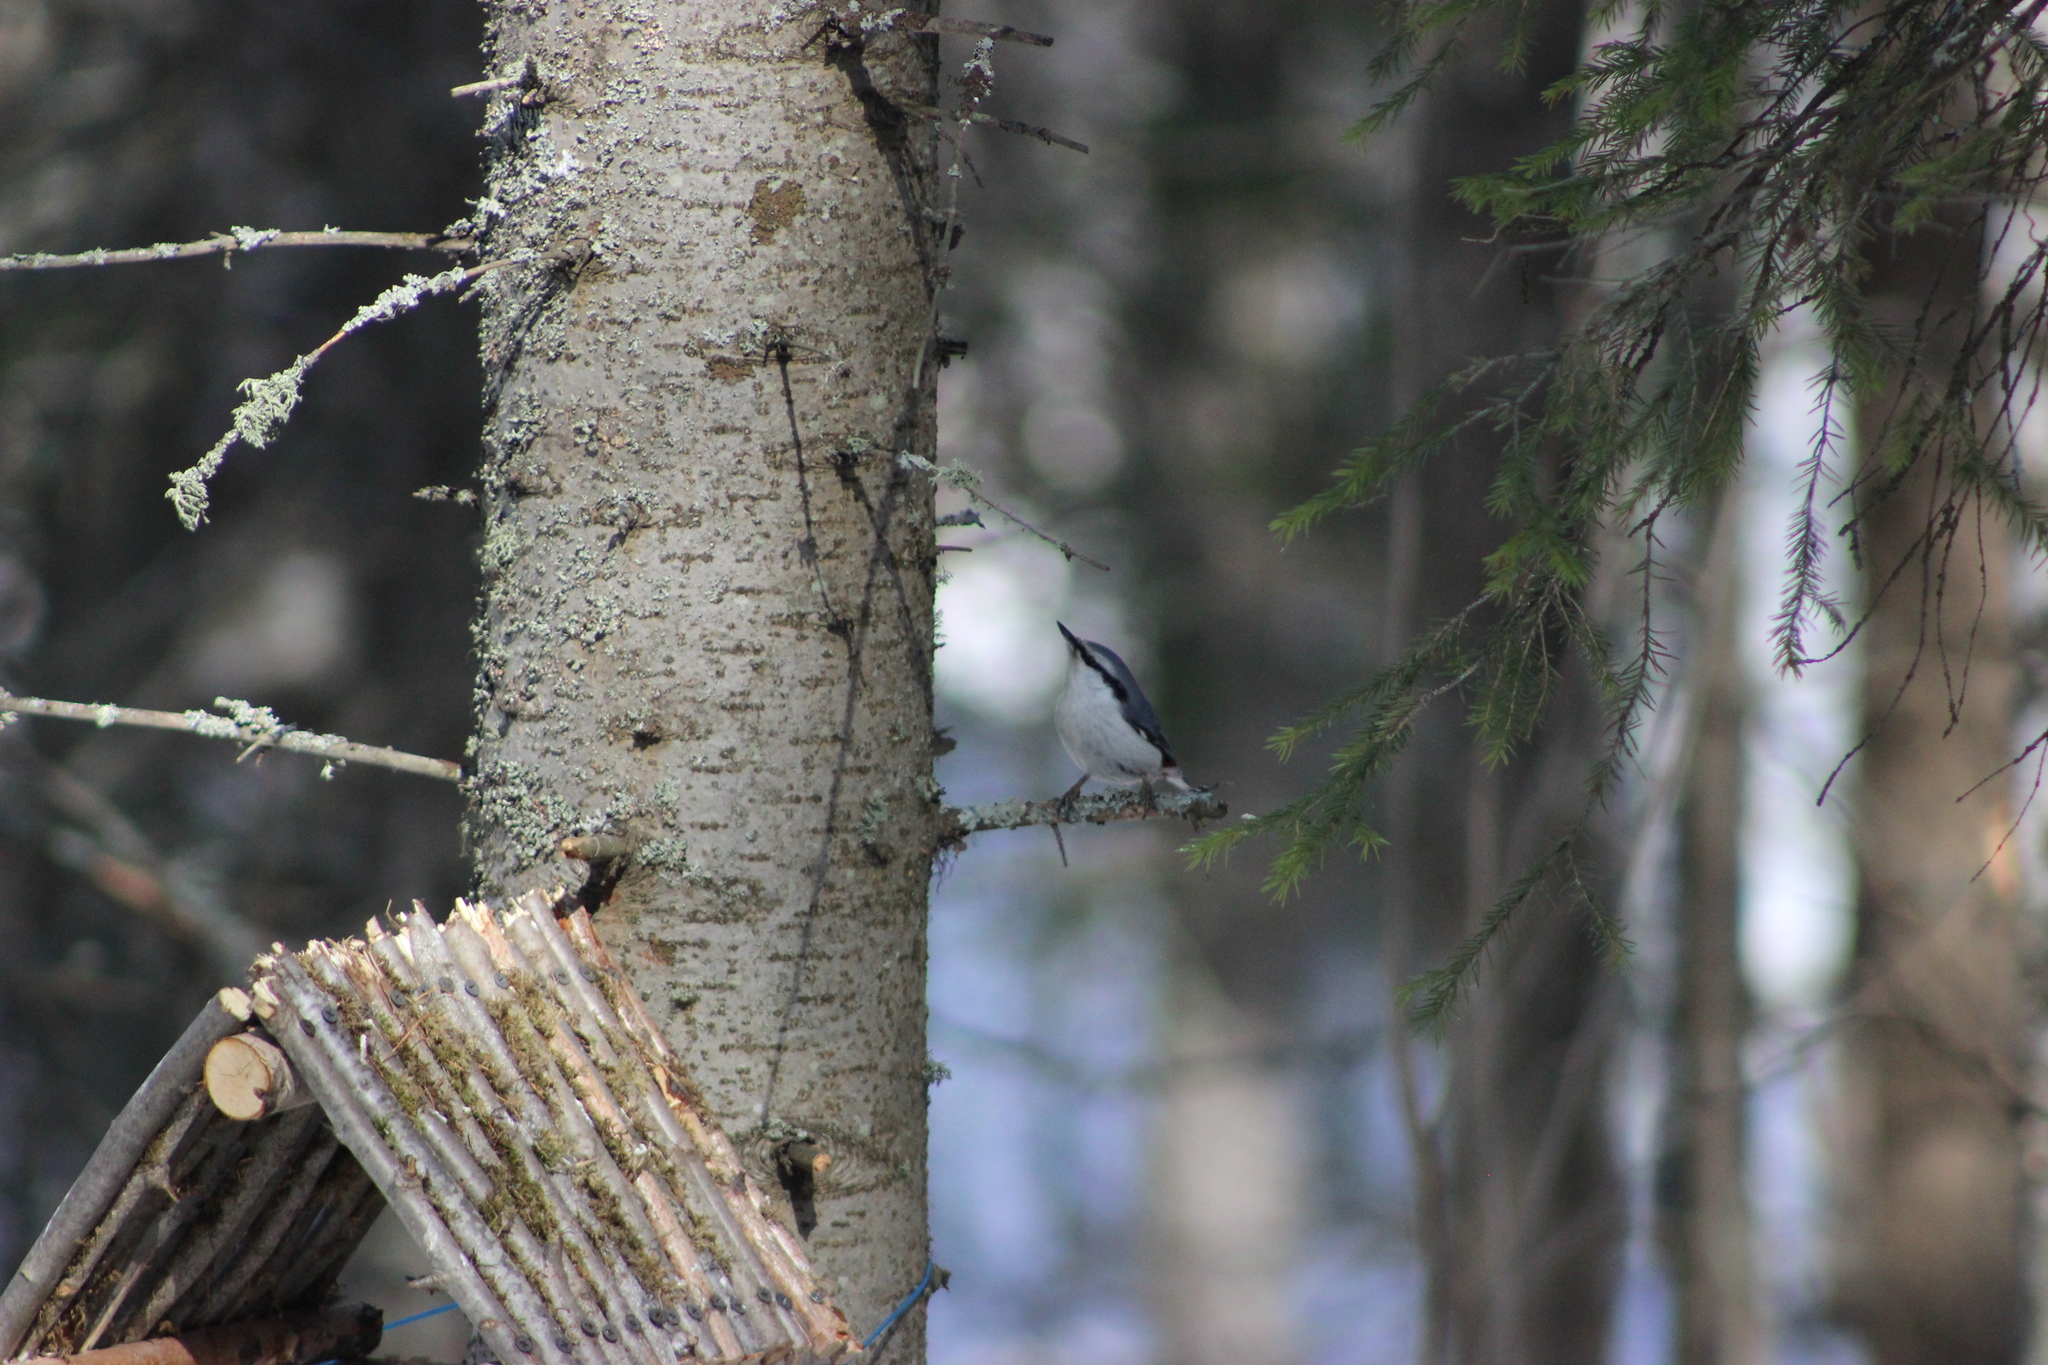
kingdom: Animalia
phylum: Chordata
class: Aves
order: Passeriformes
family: Sittidae
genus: Sitta
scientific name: Sitta europaea
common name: Eurasian nuthatch
